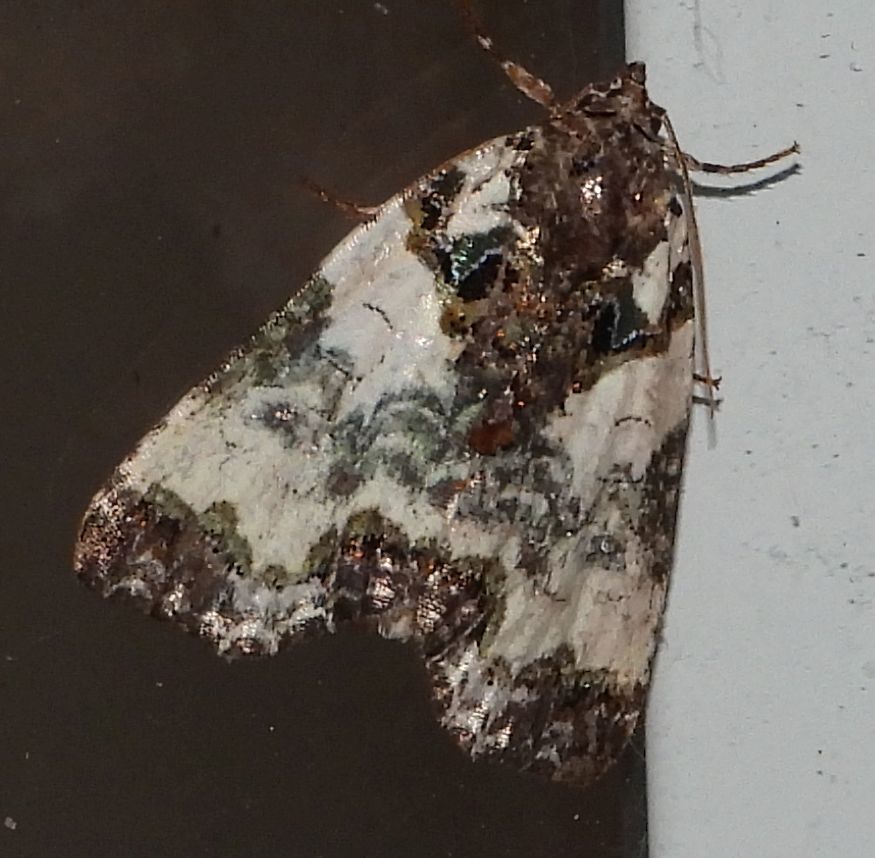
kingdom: Animalia
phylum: Arthropoda
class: Insecta
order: Lepidoptera
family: Noctuidae
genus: Cerma
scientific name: Cerma cerintha
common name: Tufted bird-dropping moth
